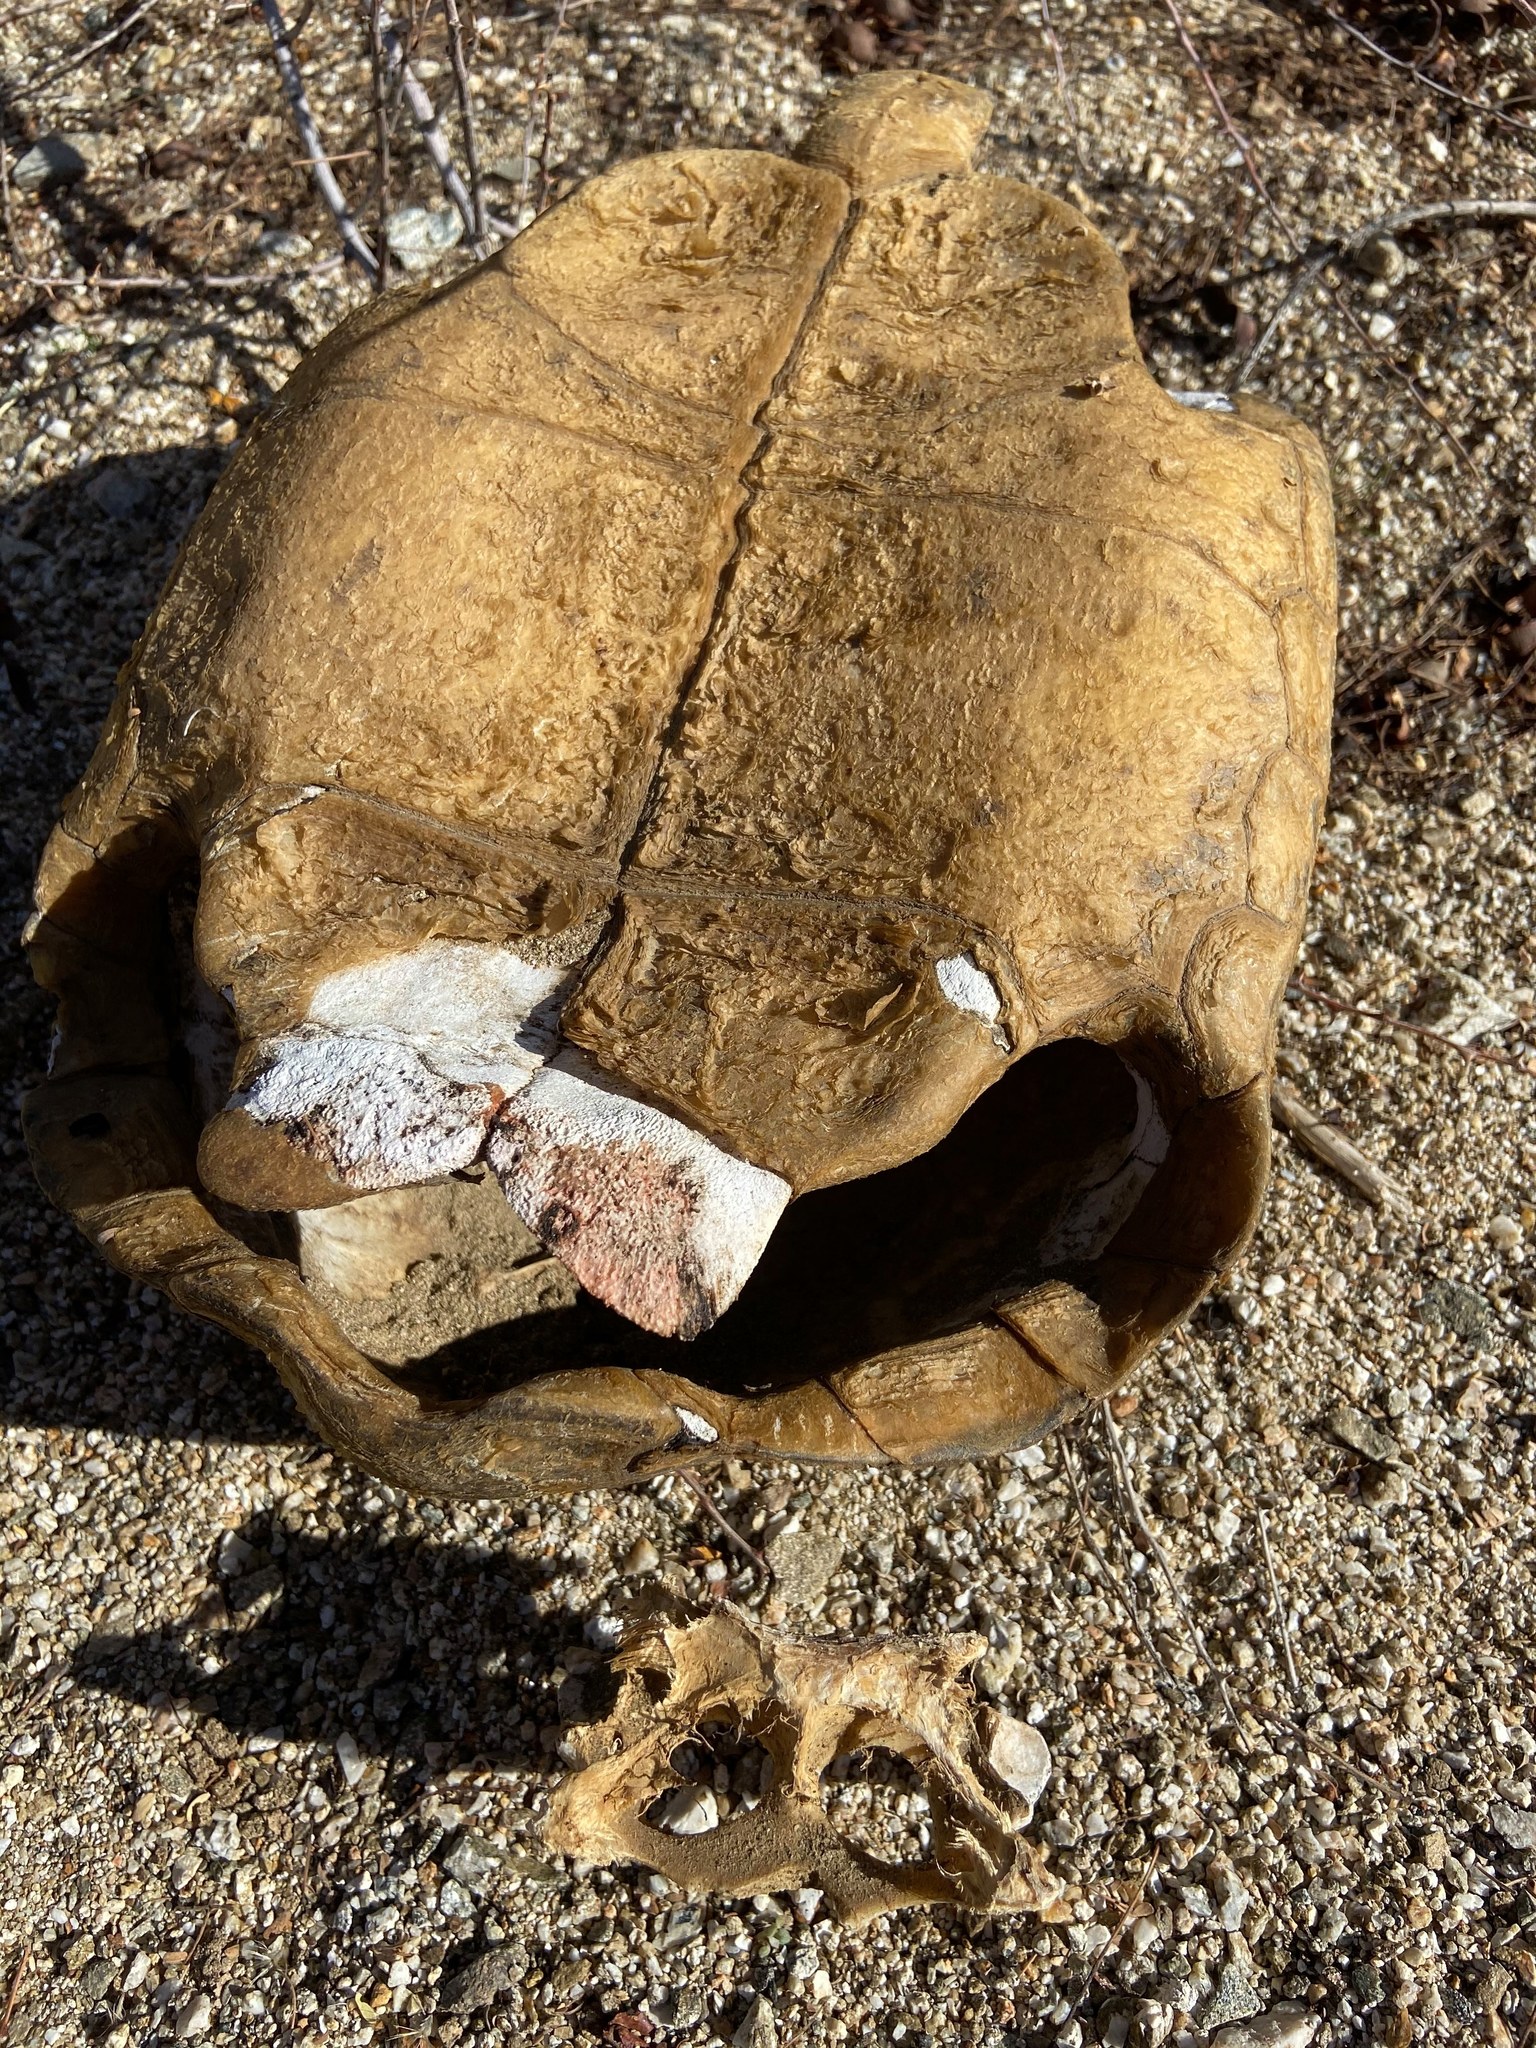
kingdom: Animalia
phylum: Chordata
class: Testudines
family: Testudinidae
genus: Gopherus
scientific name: Gopherus agassizii
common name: Mojave desert tortoise
